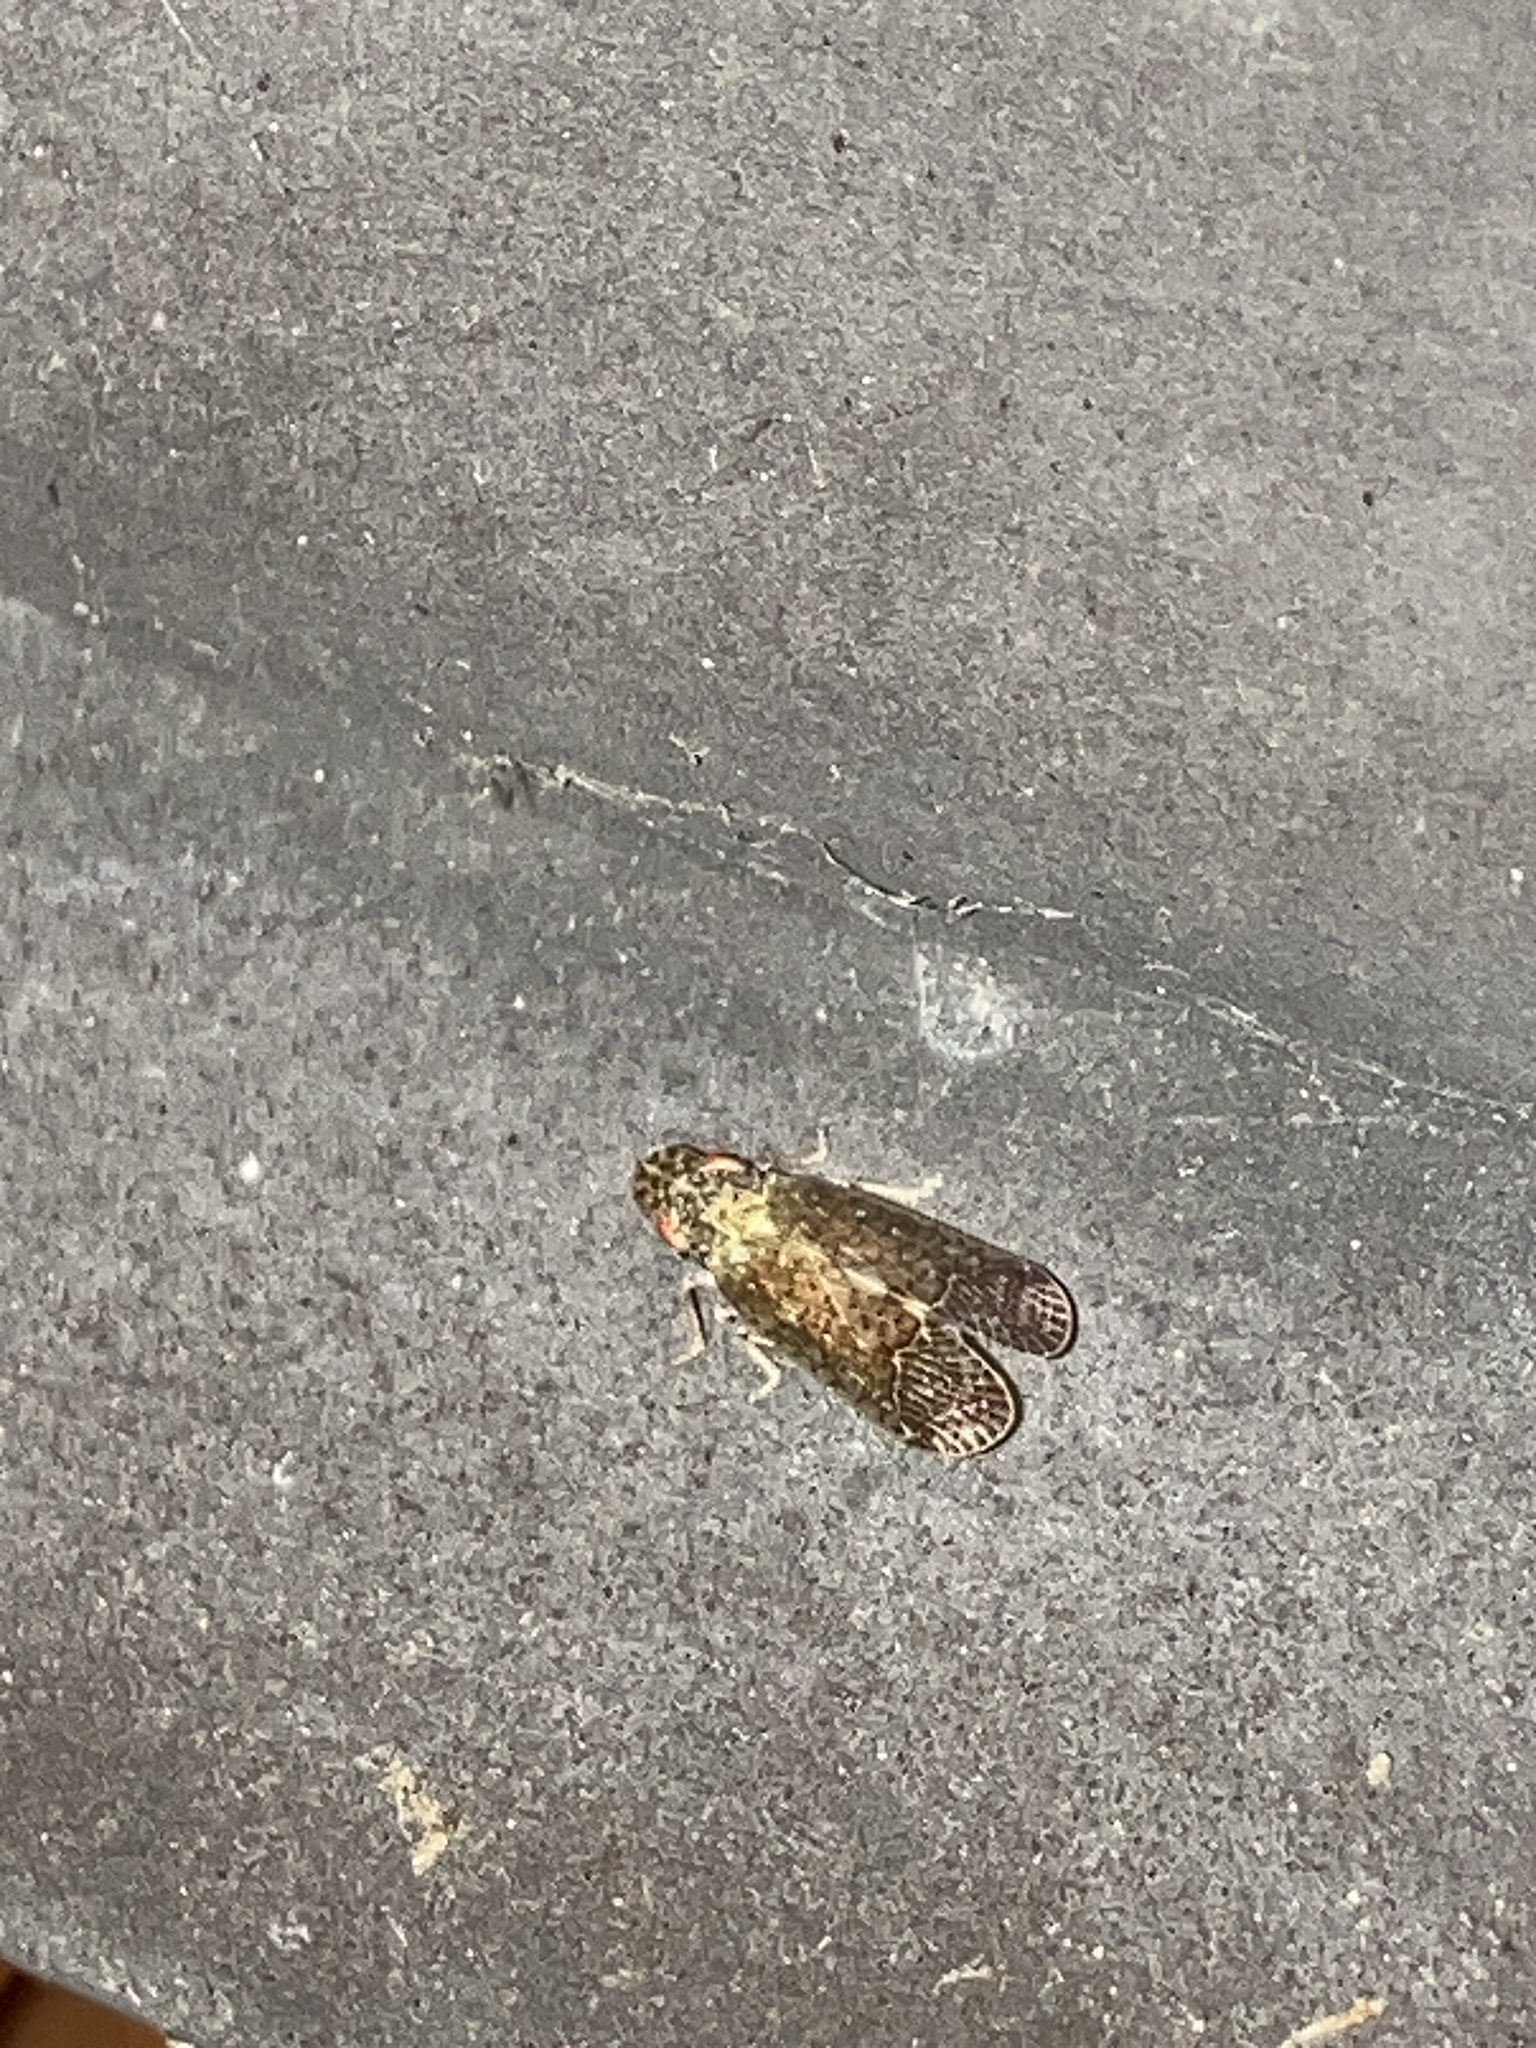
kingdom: Animalia
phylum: Arthropoda
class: Insecta
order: Hemiptera
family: Tropiduchidae
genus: Pelitropis
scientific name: Pelitropis rotulata
